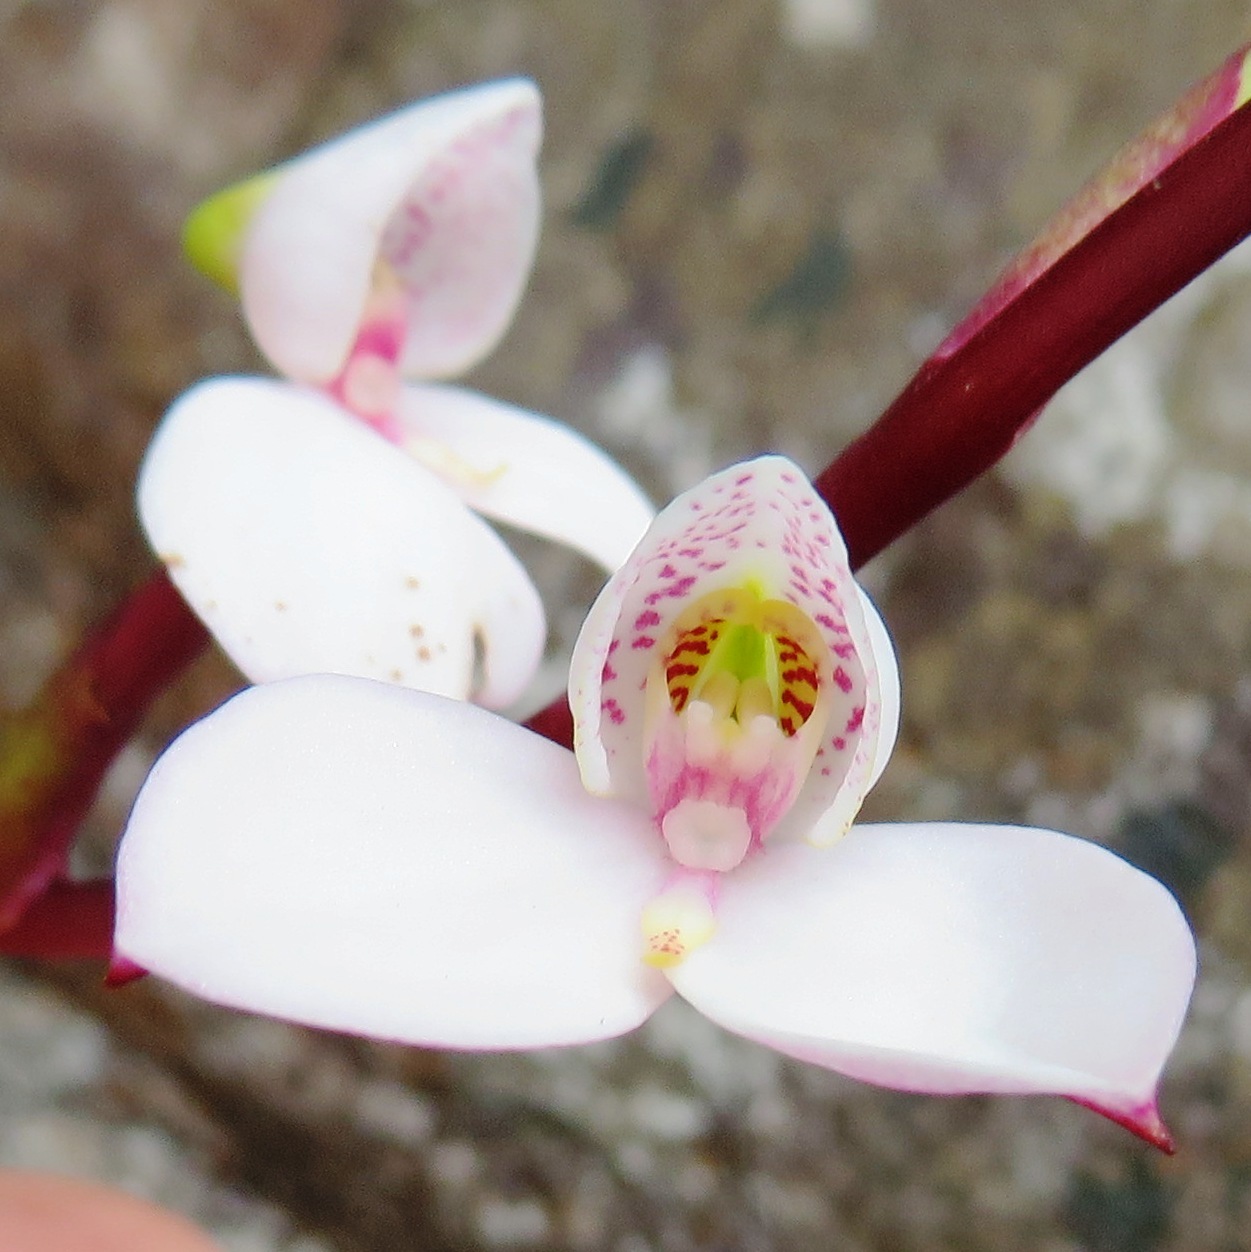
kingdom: Plantae
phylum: Tracheophyta
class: Liliopsida
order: Asparagales
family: Orchidaceae
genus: Disa
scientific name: Disa tripetaloides
